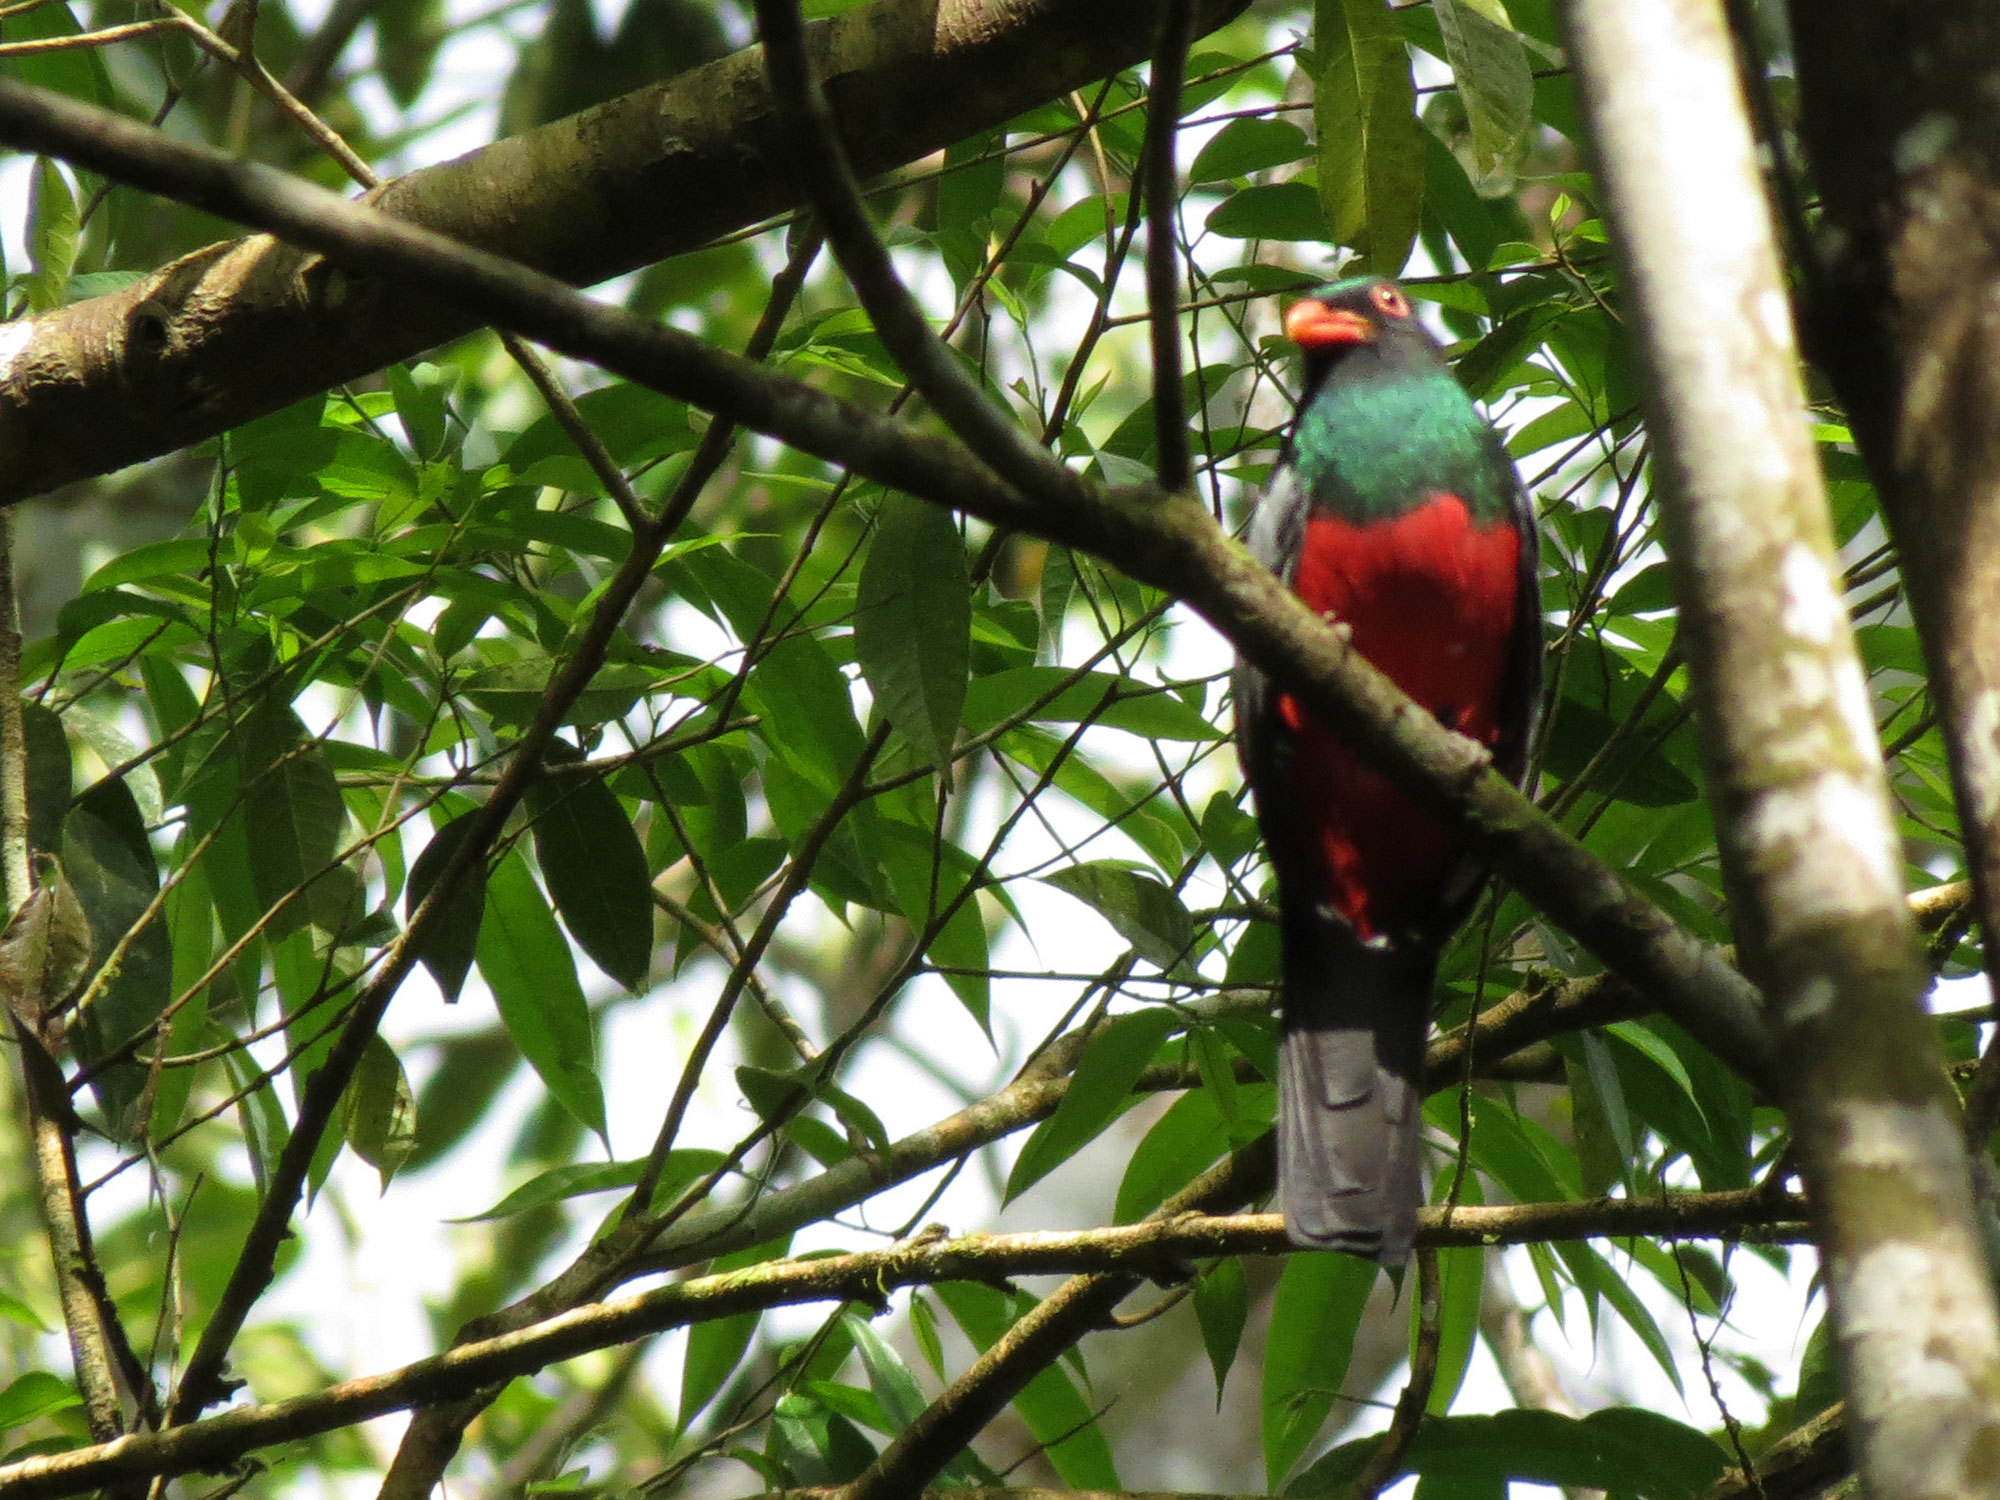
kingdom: Animalia
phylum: Chordata
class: Aves
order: Trogoniformes
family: Trogonidae
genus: Trogon
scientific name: Trogon massena
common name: Slaty-tailed trogon
